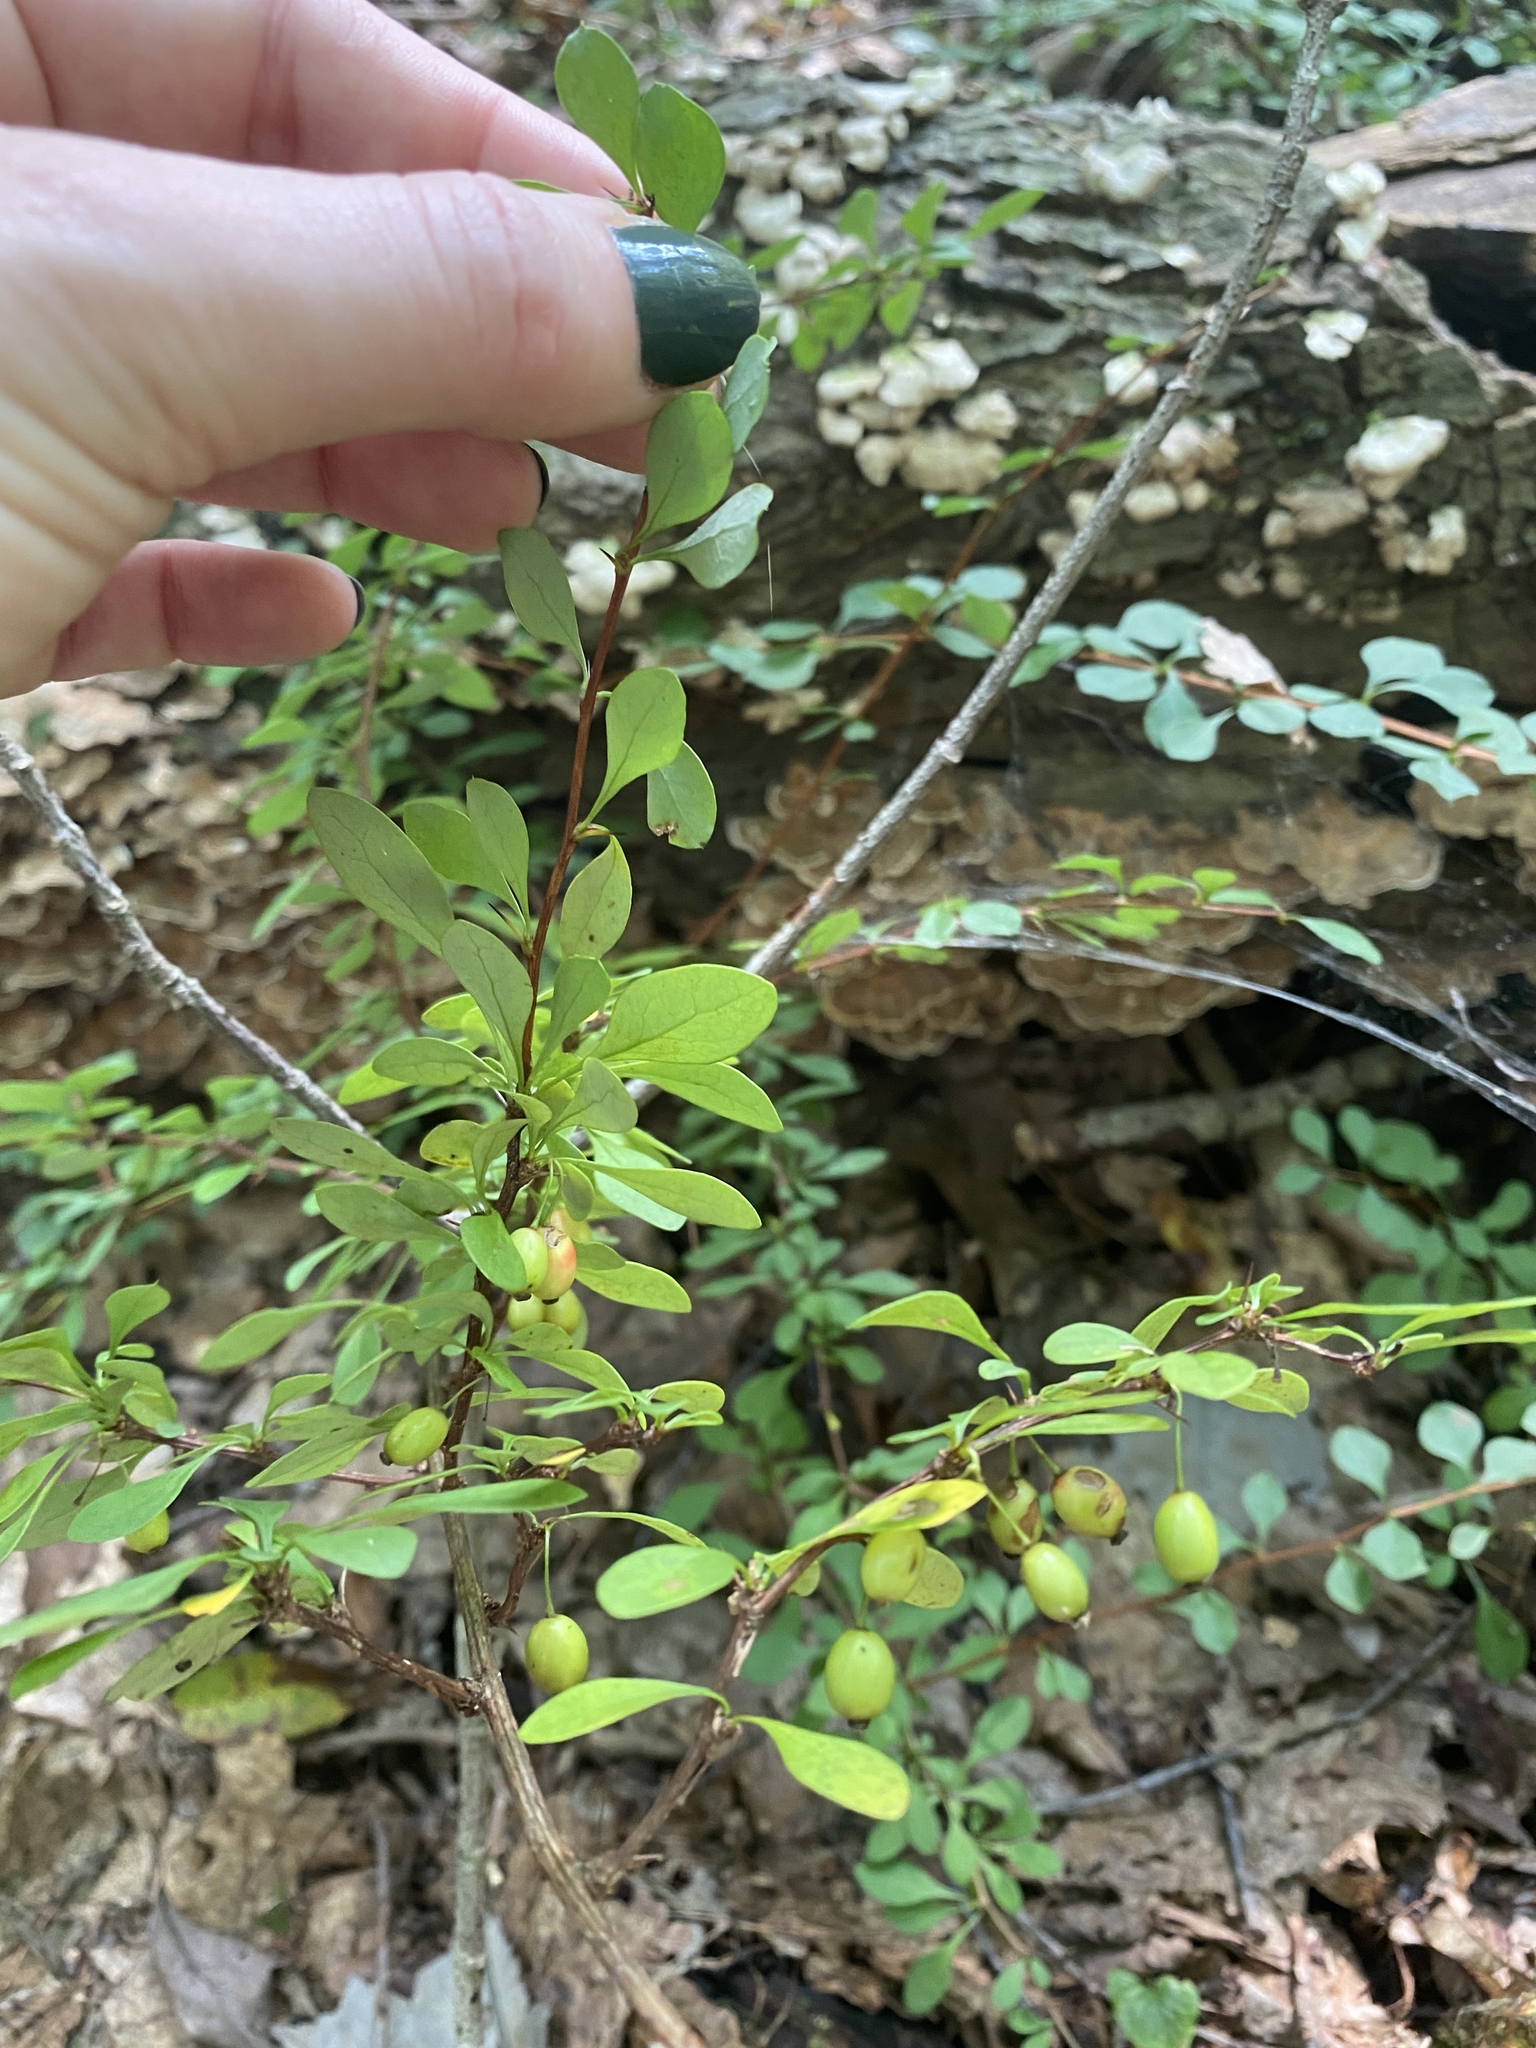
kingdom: Plantae
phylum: Tracheophyta
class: Magnoliopsida
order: Ranunculales
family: Berberidaceae
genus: Berberis
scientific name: Berberis thunbergii
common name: Japanese barberry
